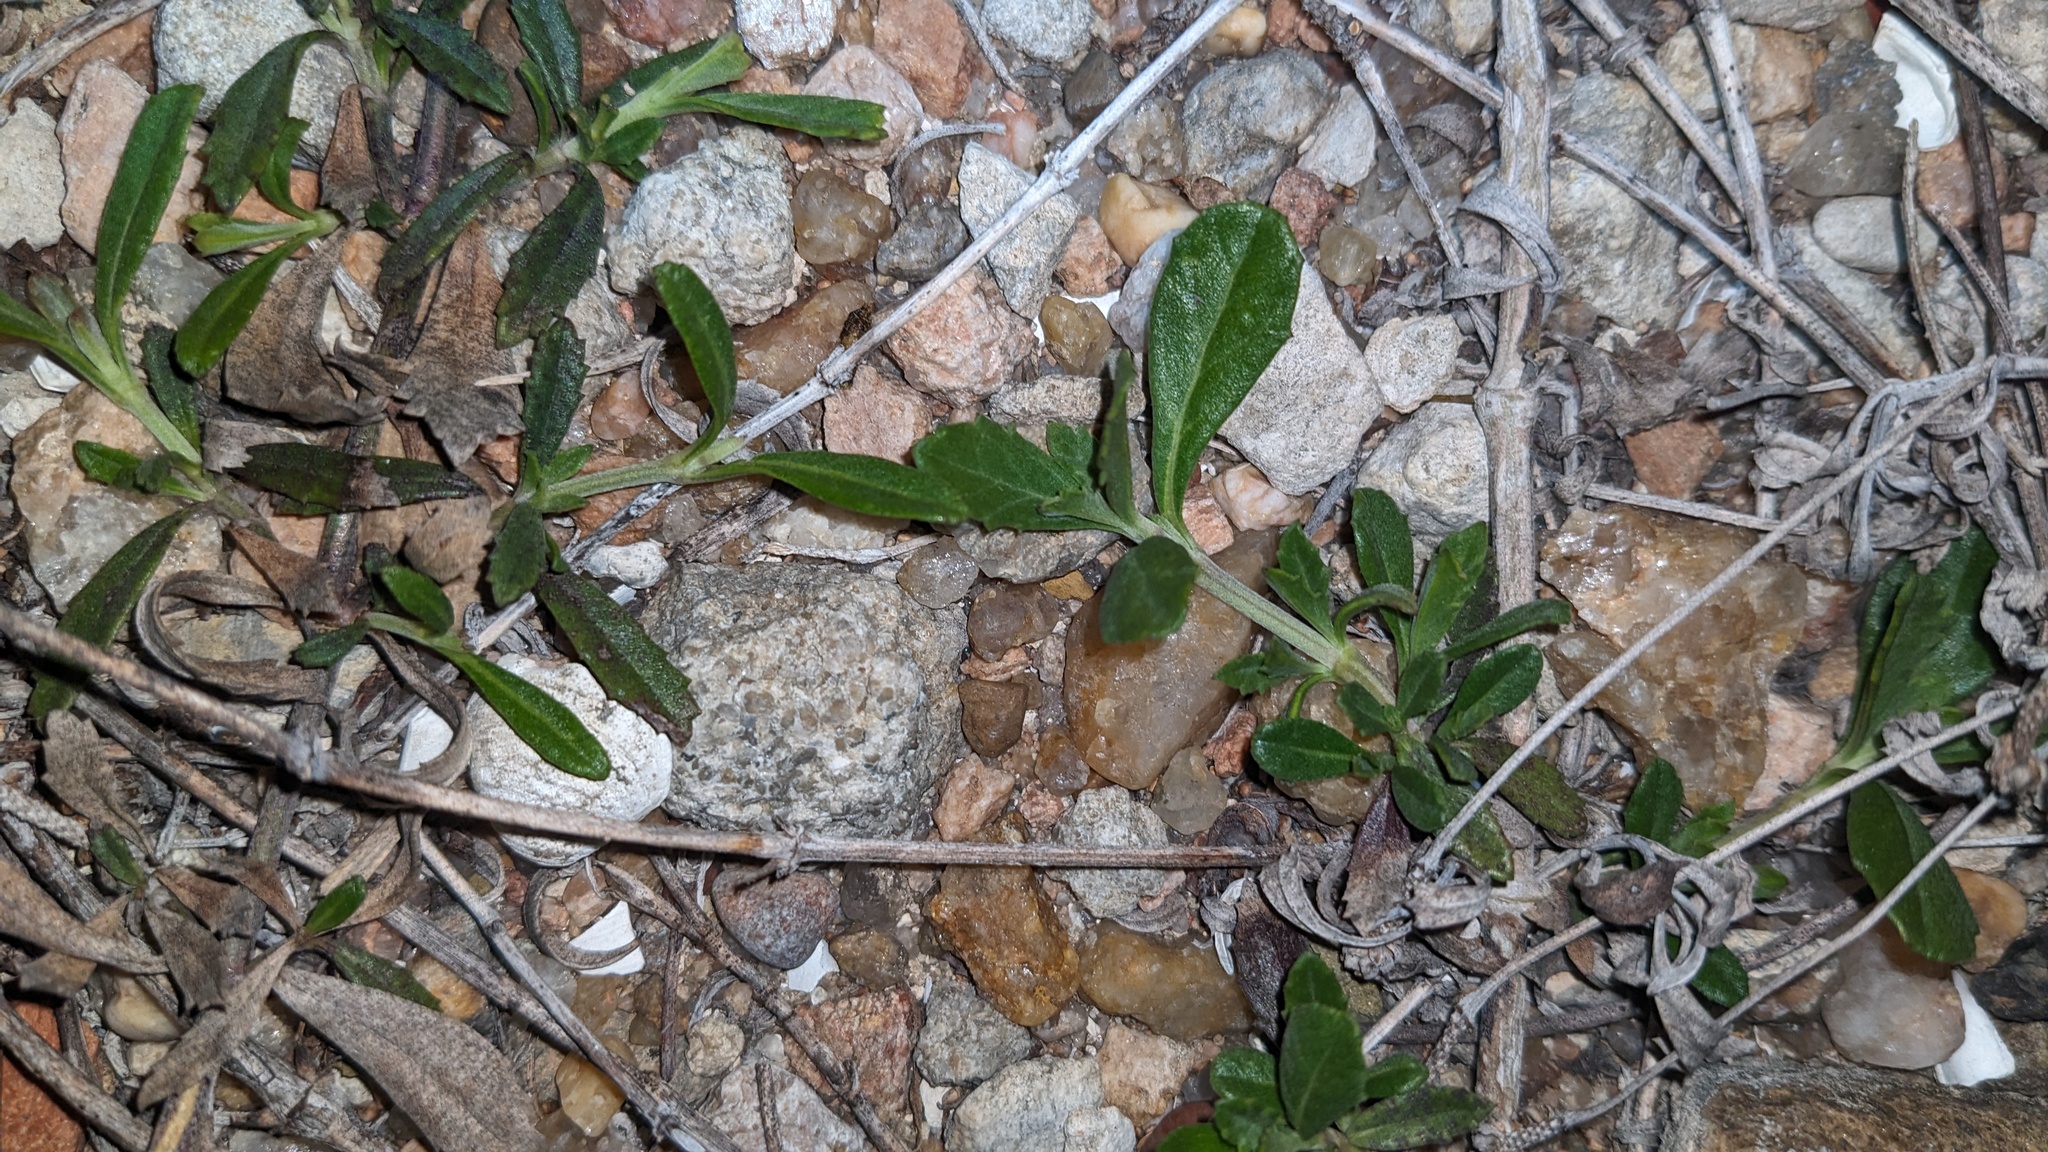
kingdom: Plantae
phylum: Tracheophyta
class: Magnoliopsida
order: Lamiales
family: Verbenaceae
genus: Phyla
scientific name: Phyla nodiflora
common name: Frogfruit
